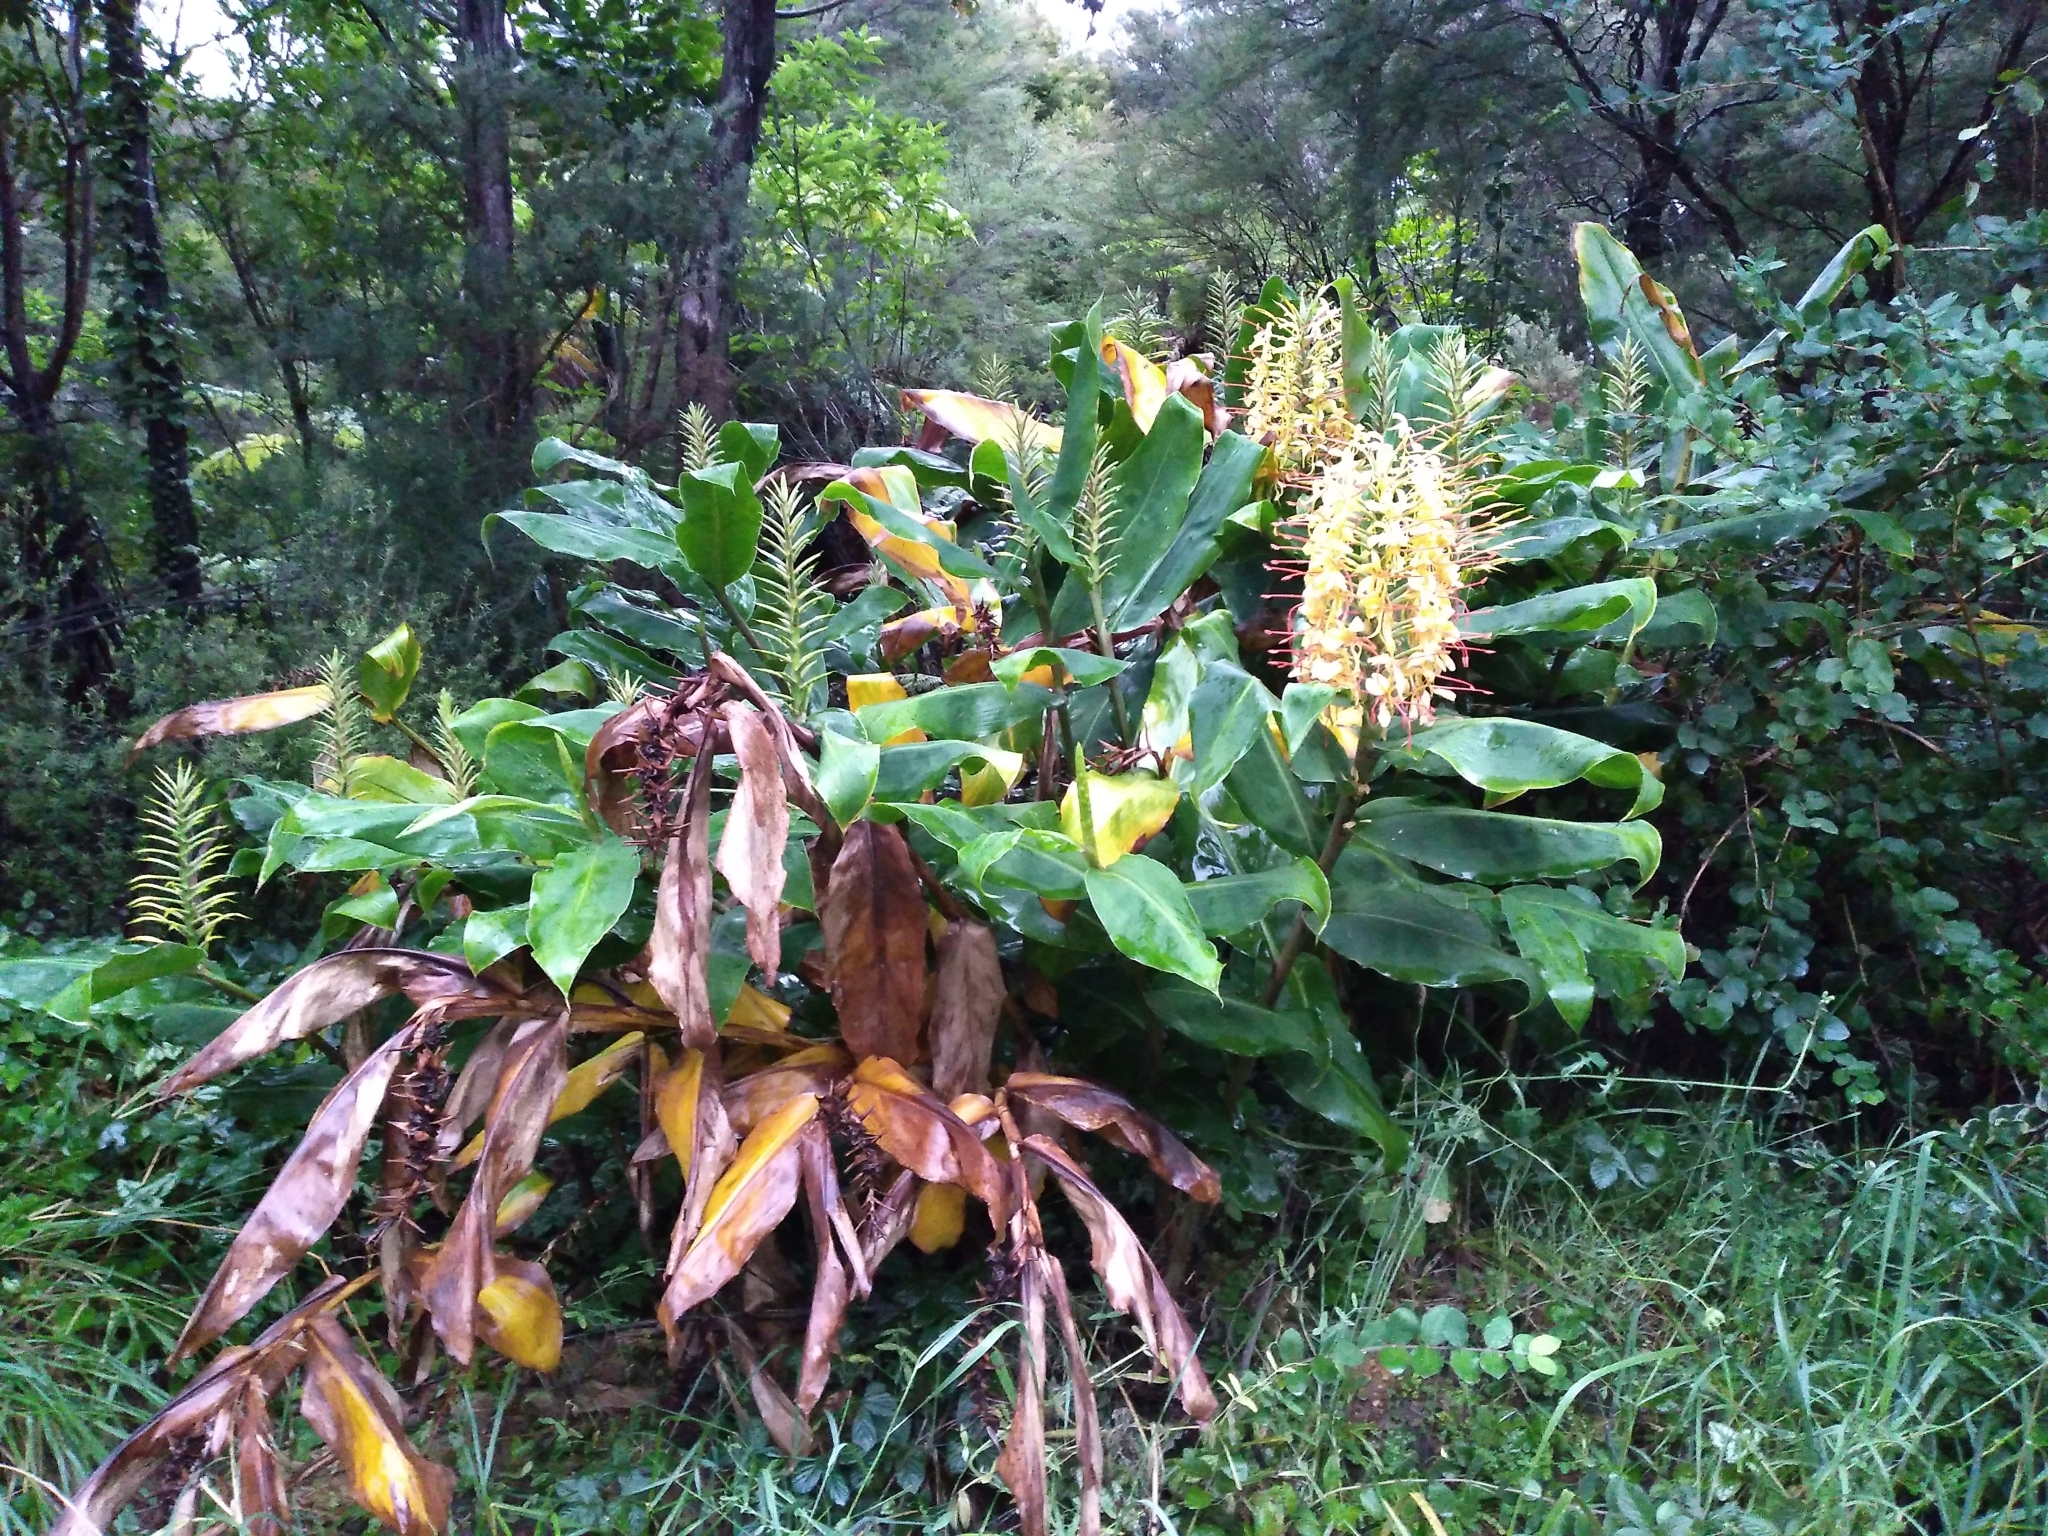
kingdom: Plantae
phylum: Tracheophyta
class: Liliopsida
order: Zingiberales
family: Zingiberaceae
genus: Hedychium
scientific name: Hedychium gardnerianum
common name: Himalayan ginger
